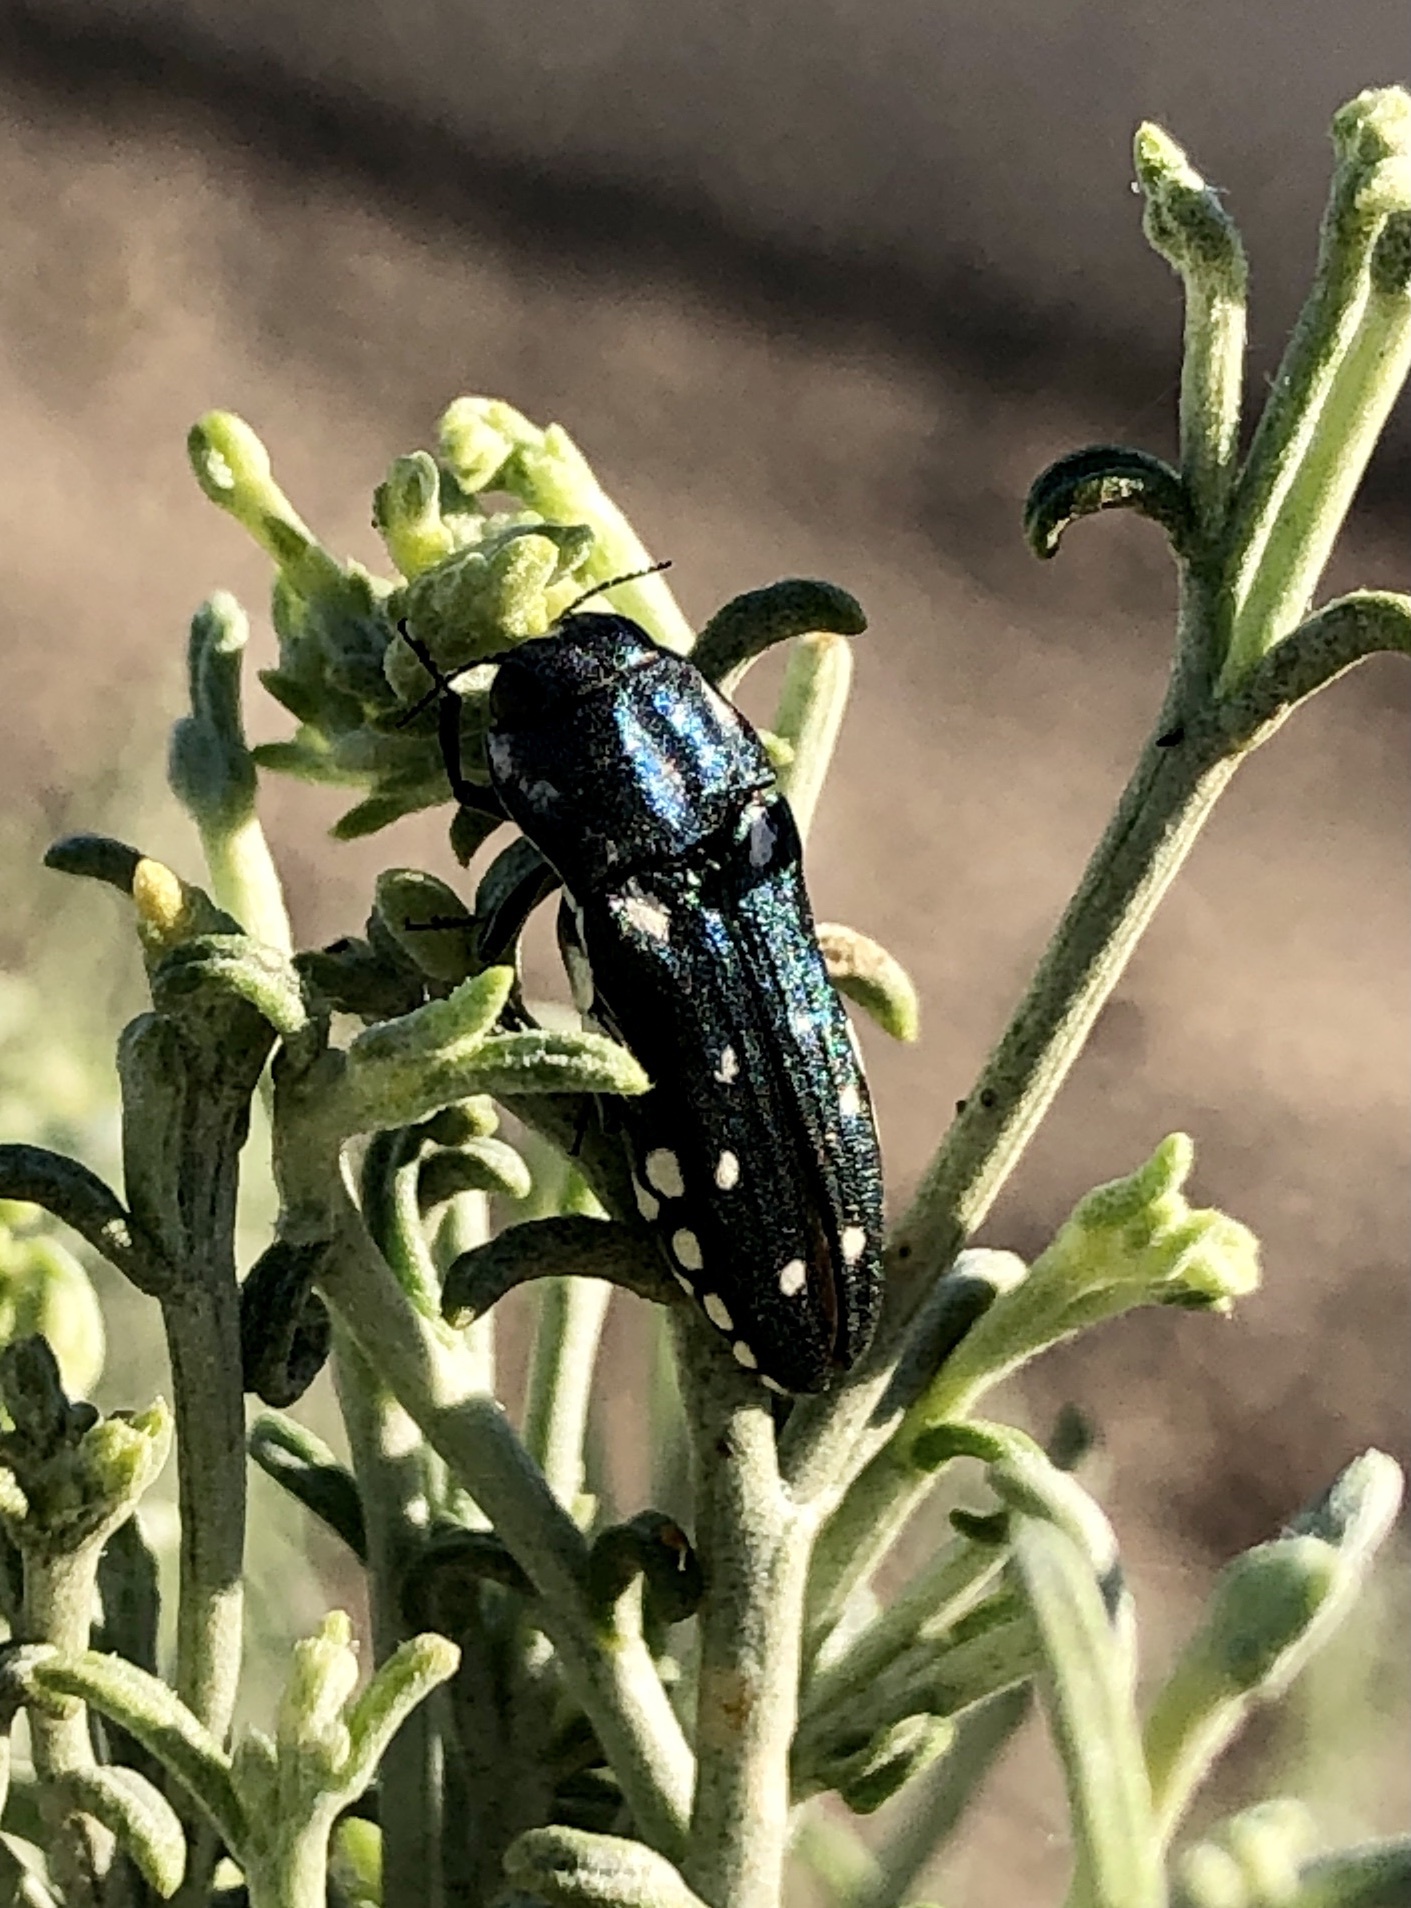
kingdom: Animalia
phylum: Arthropoda
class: Insecta
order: Coleoptera
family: Buprestidae
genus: Agrilus
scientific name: Agrilus walsinghami
